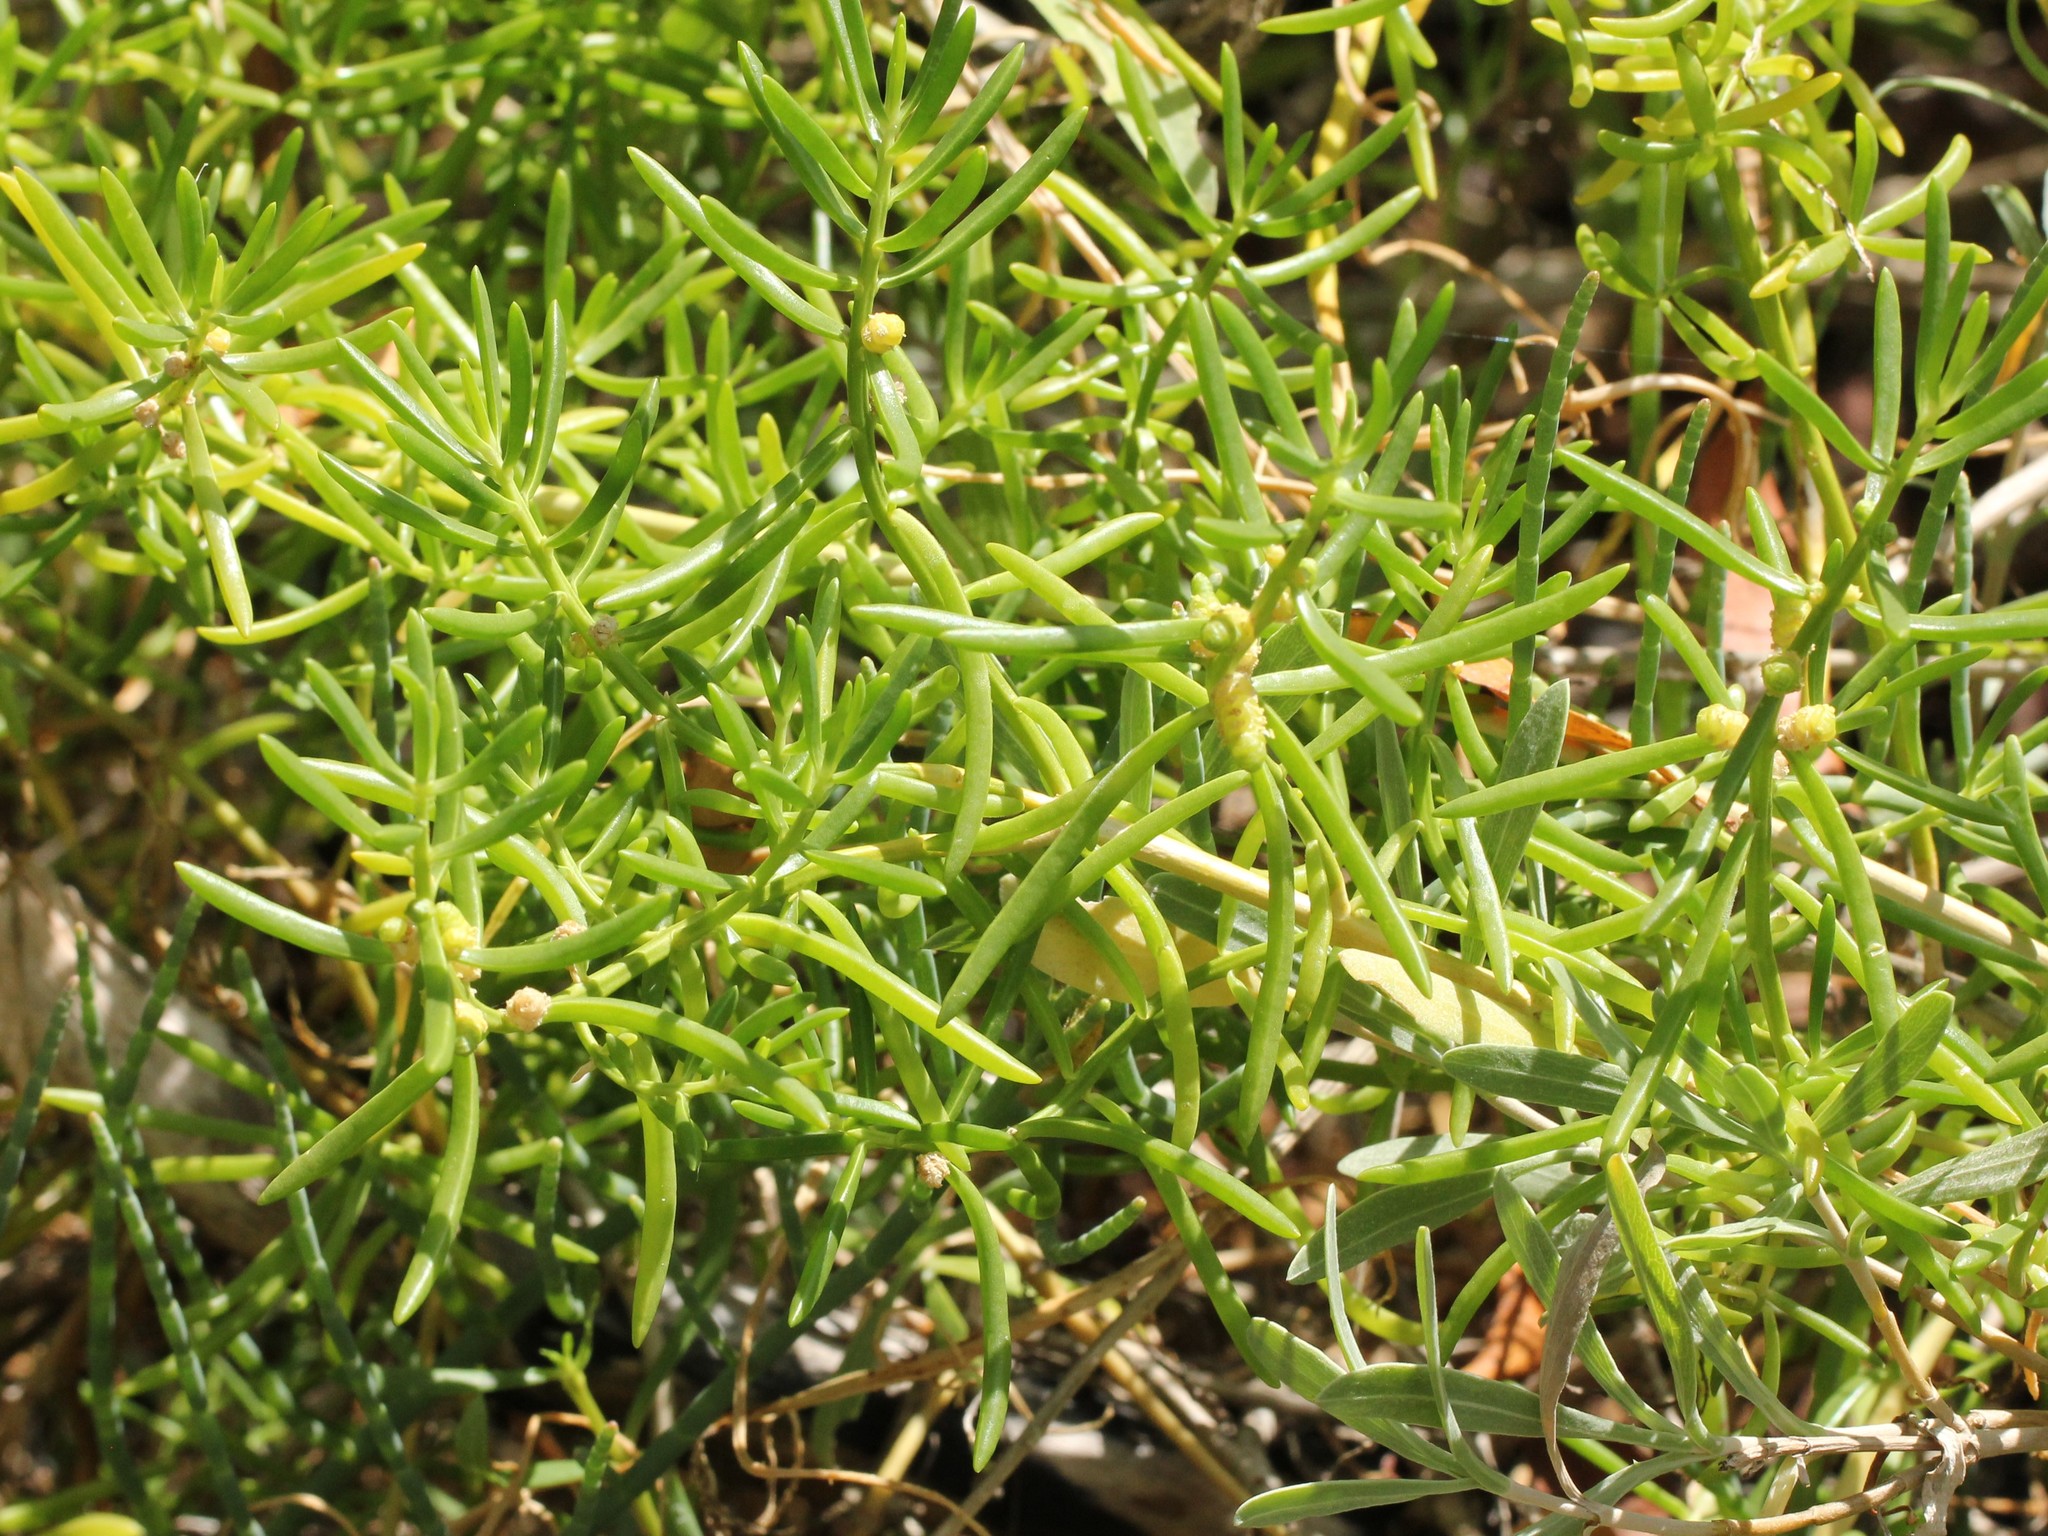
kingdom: Plantae
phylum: Tracheophyta
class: Magnoliopsida
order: Brassicales
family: Bataceae
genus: Batis
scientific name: Batis maritima
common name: Turtleweed
